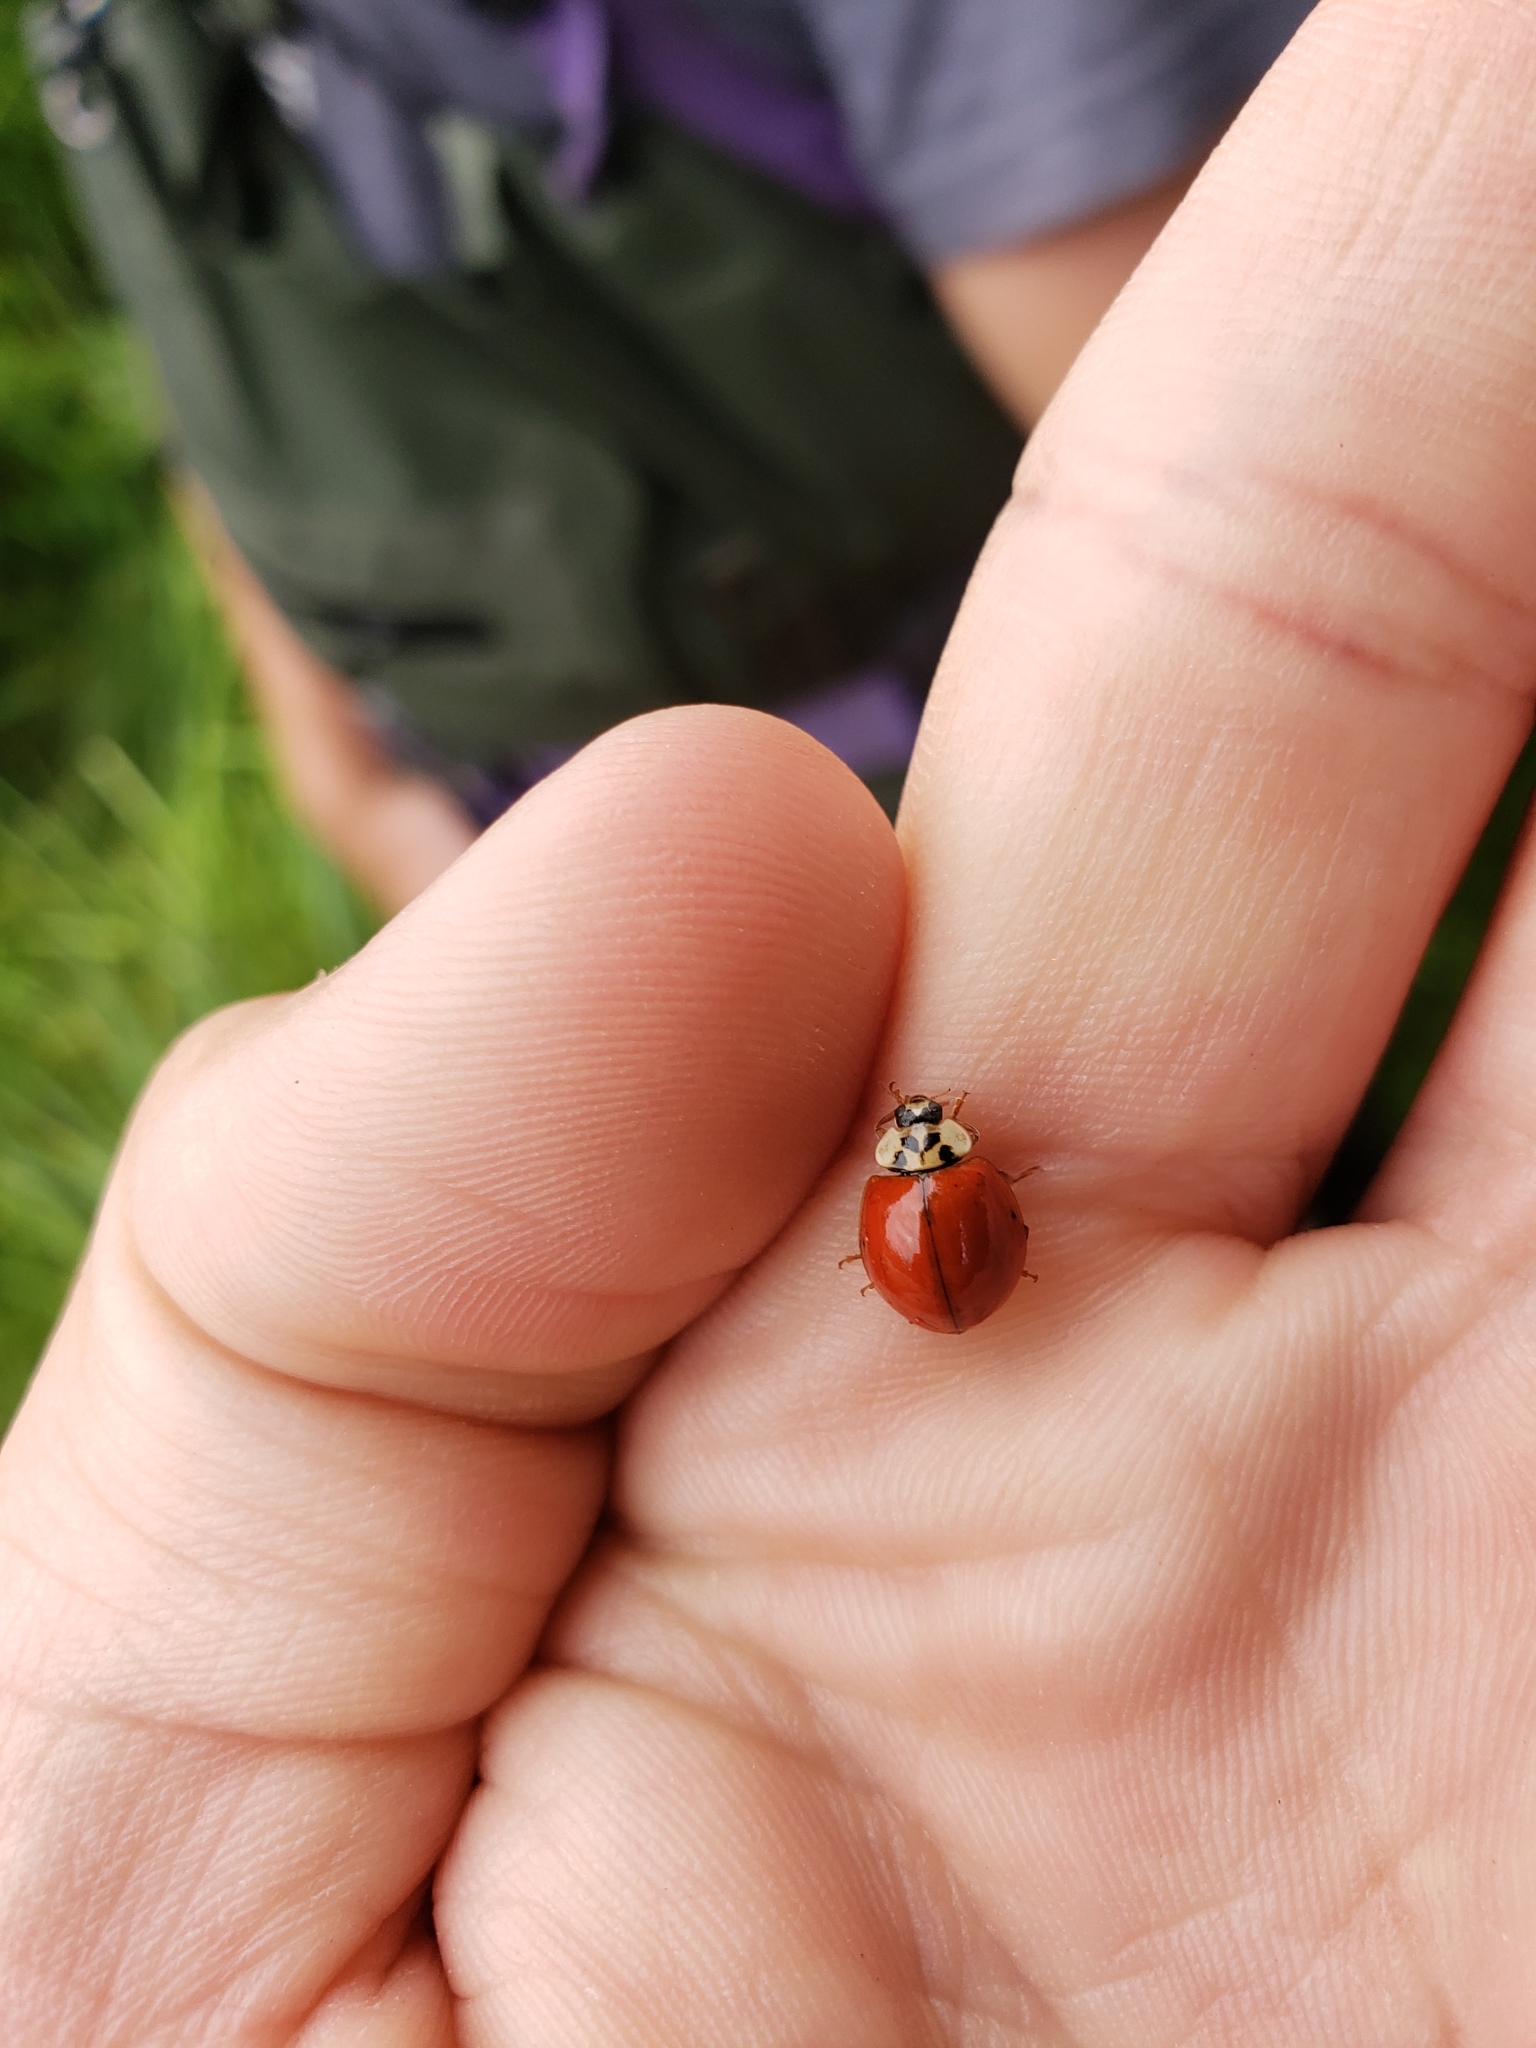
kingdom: Animalia
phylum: Arthropoda
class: Insecta
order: Coleoptera
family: Coccinellidae
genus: Harmonia
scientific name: Harmonia axyridis
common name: Harlequin ladybird
